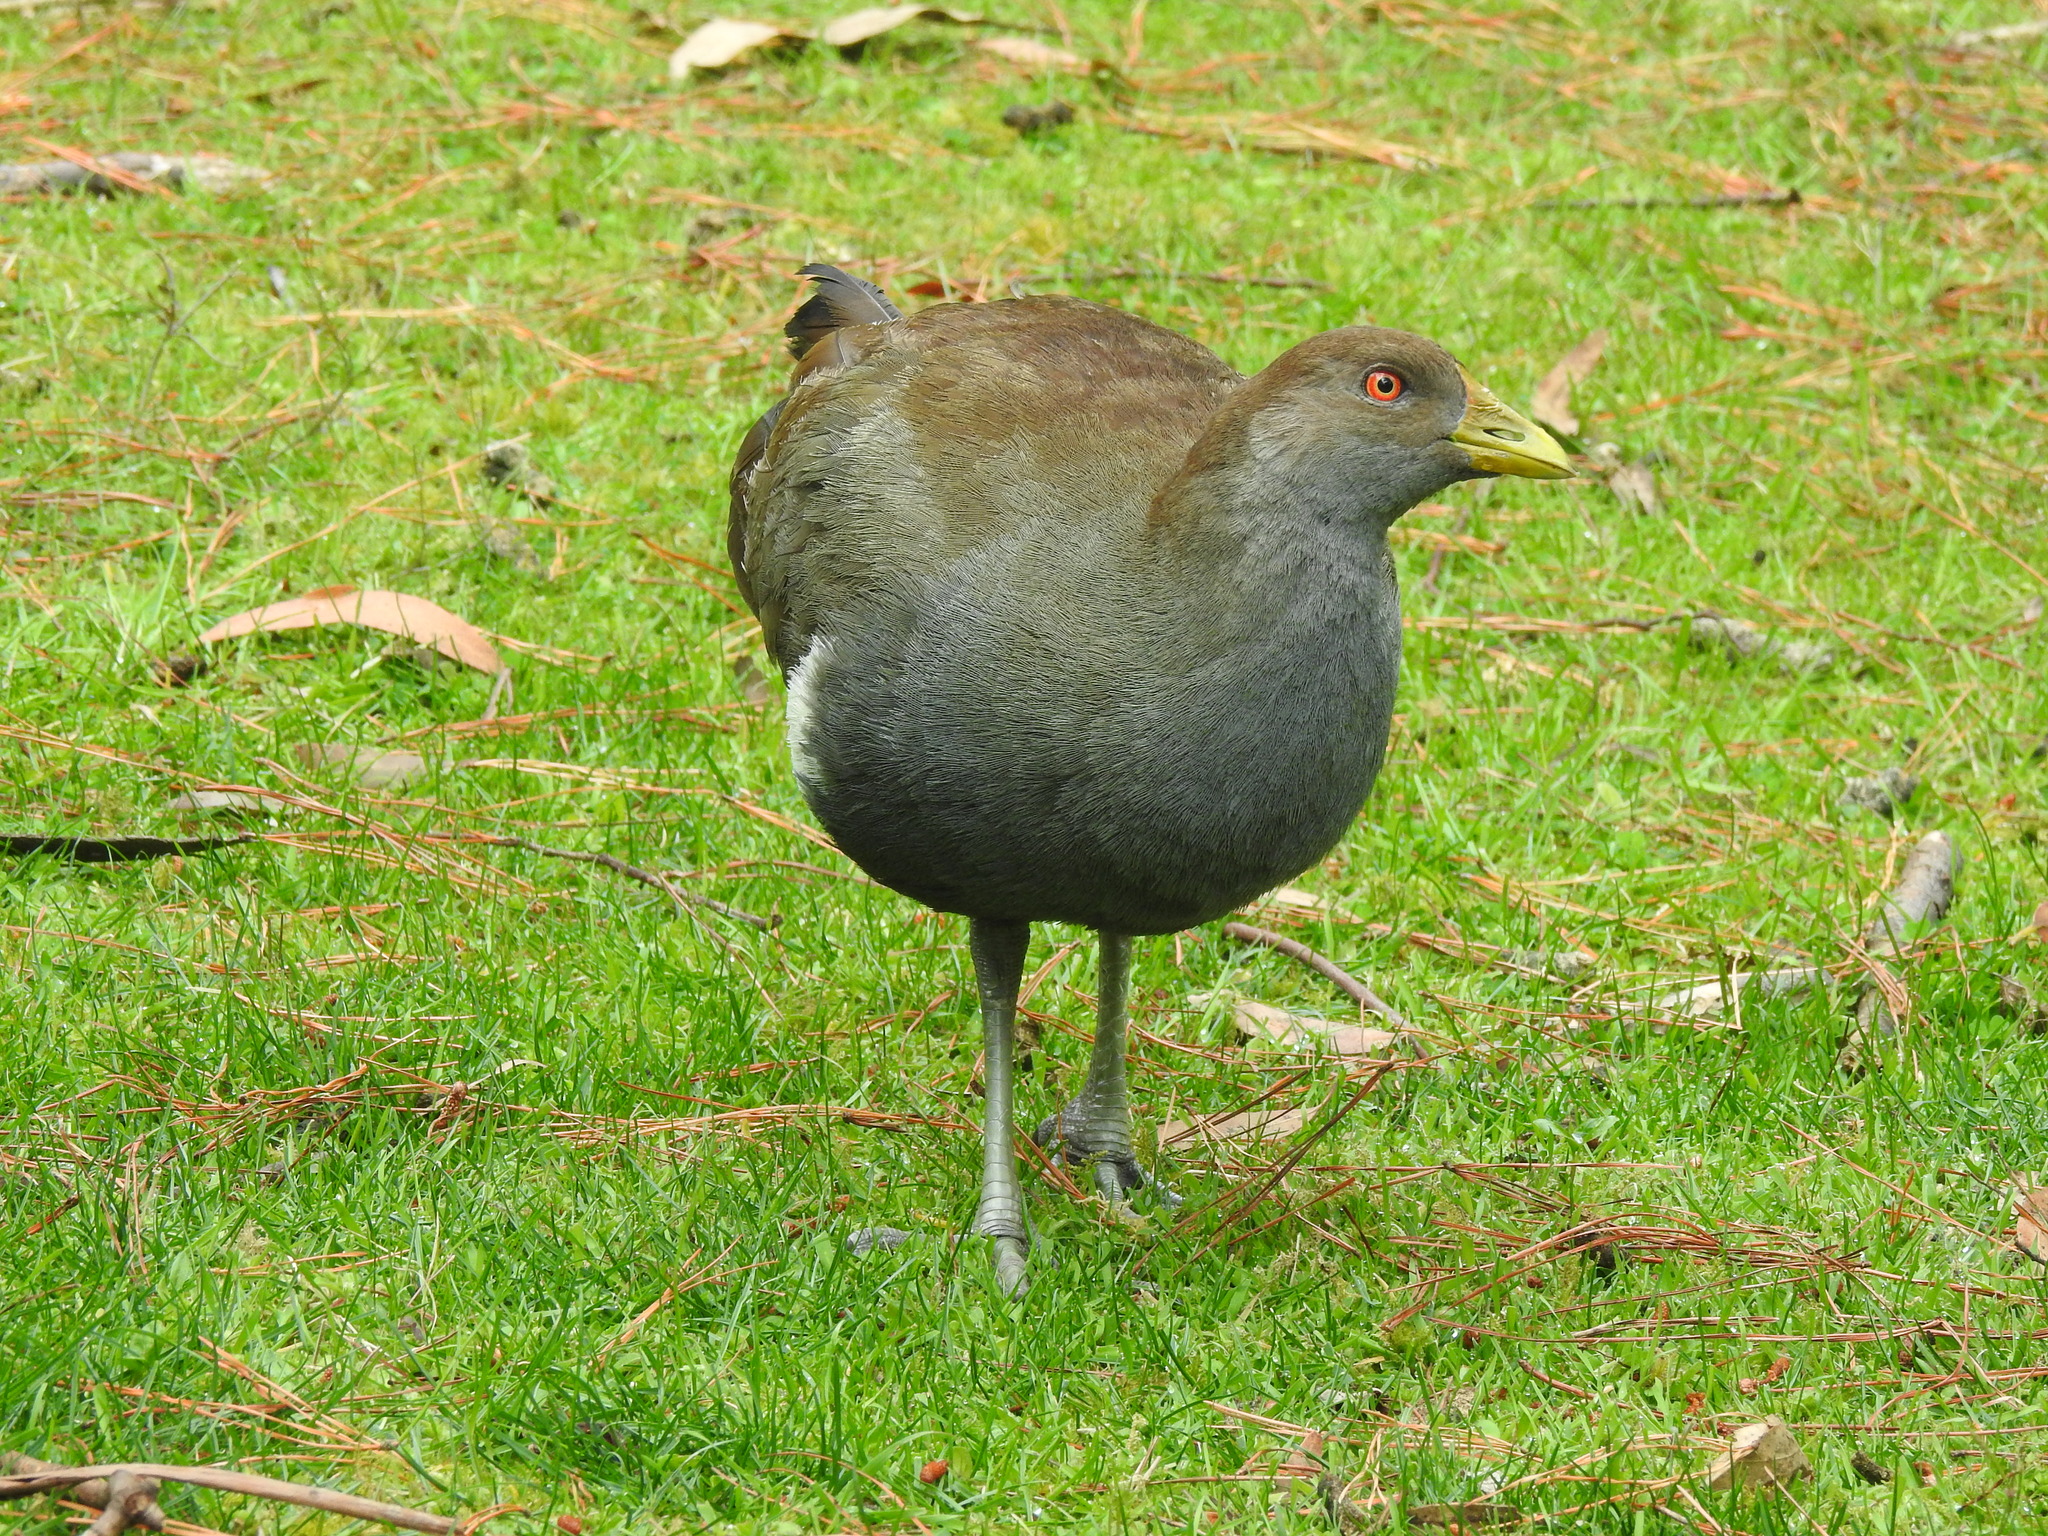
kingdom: Animalia
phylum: Chordata
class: Aves
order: Gruiformes
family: Rallidae
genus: Gallinula
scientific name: Gallinula mortierii
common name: Tasmanian nativehen
